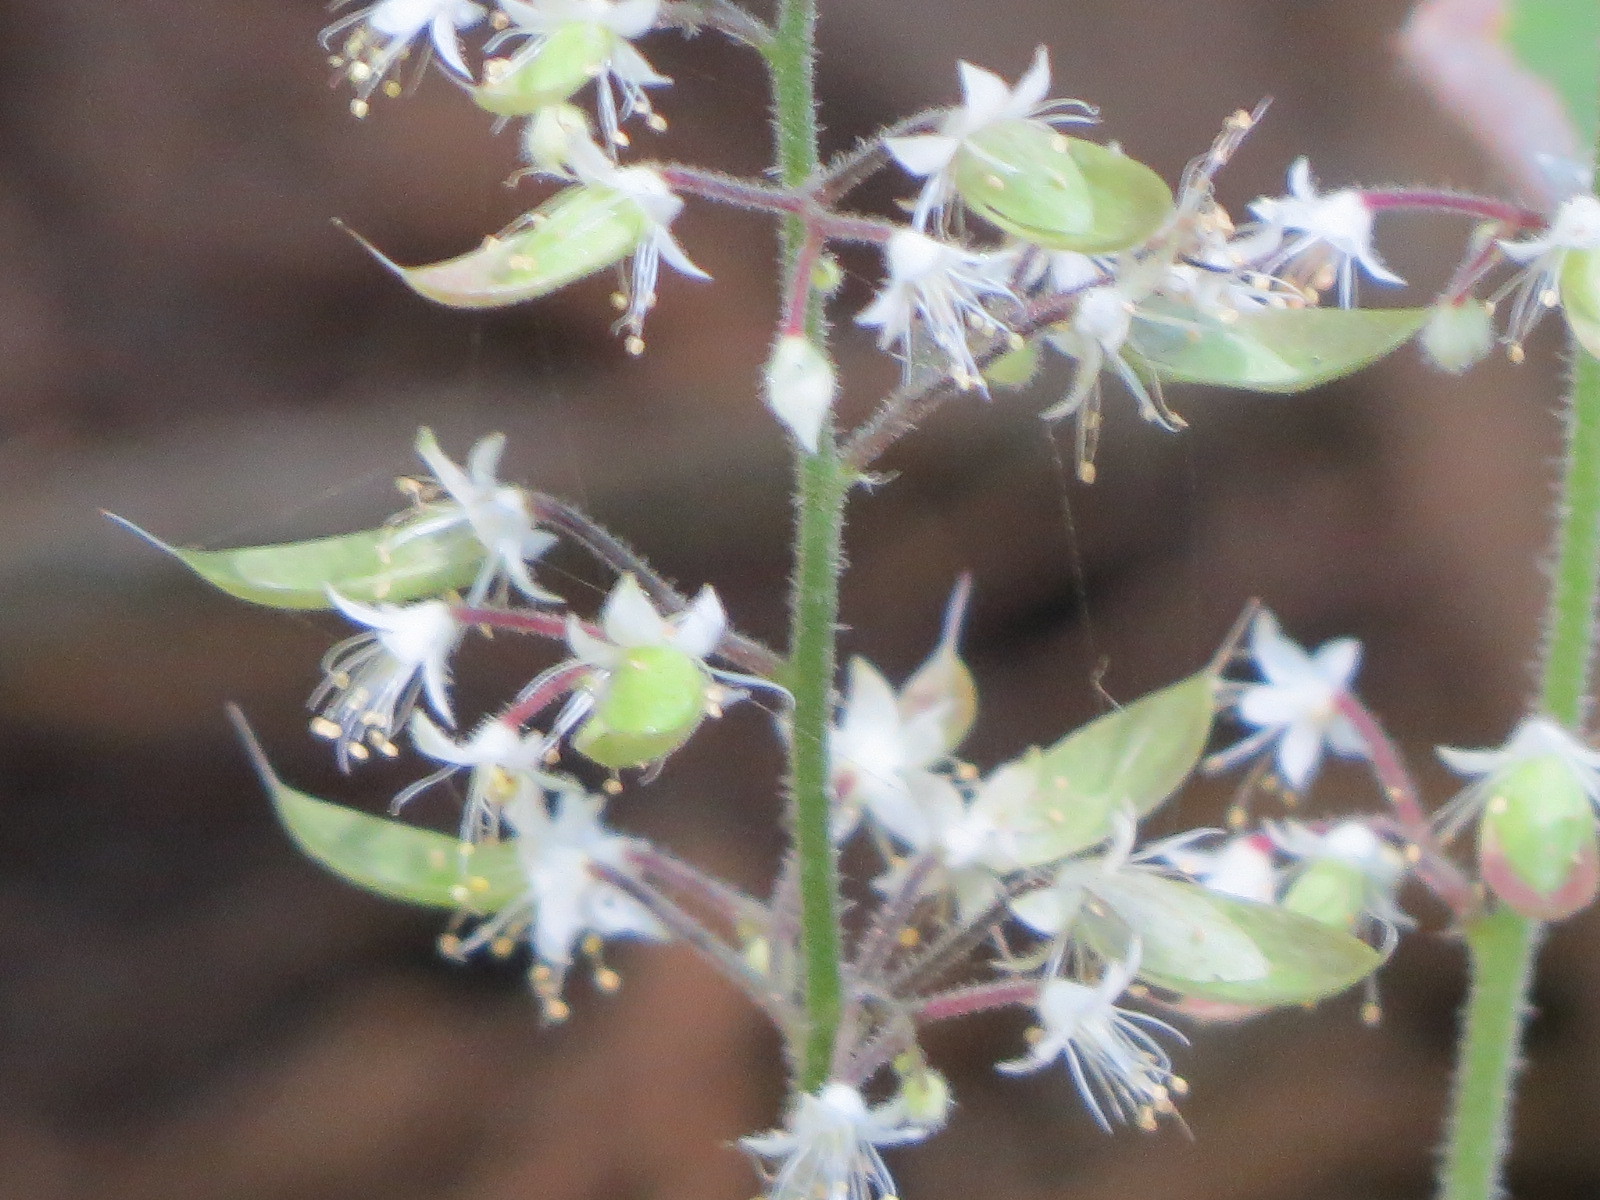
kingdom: Plantae
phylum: Tracheophyta
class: Magnoliopsida
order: Saxifragales
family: Saxifragaceae
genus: Tiarella
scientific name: Tiarella trifoliata
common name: Sugar-scoop
